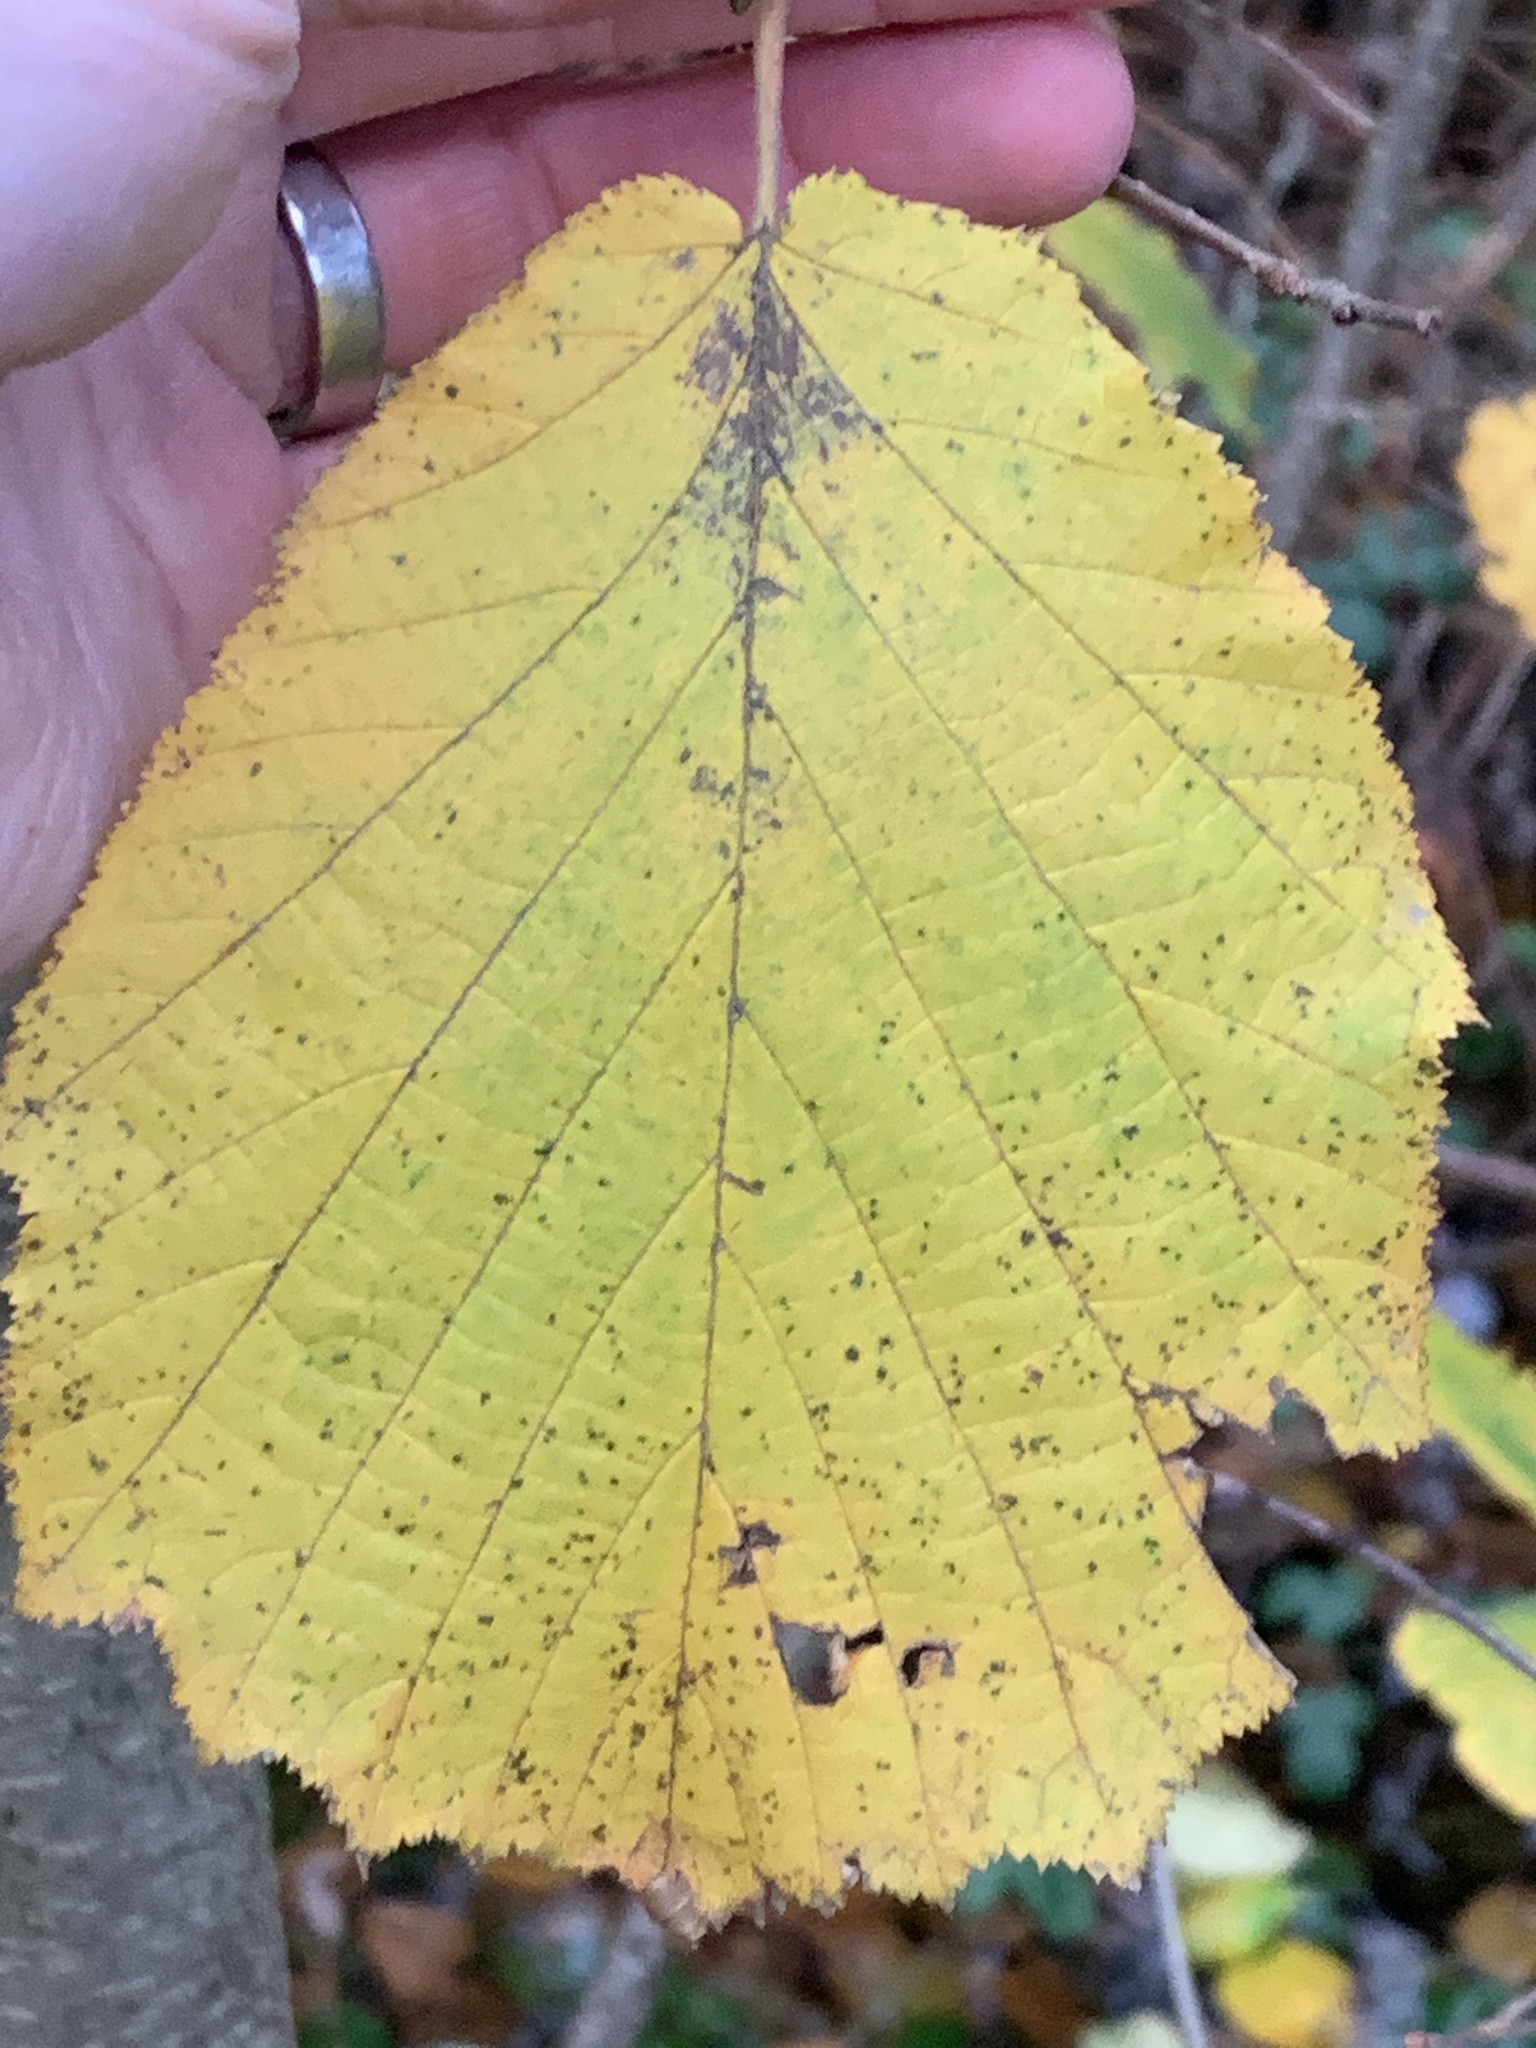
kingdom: Plantae
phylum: Tracheophyta
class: Magnoliopsida
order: Fagales
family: Betulaceae
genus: Corylus
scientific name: Corylus avellana
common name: European hazel
